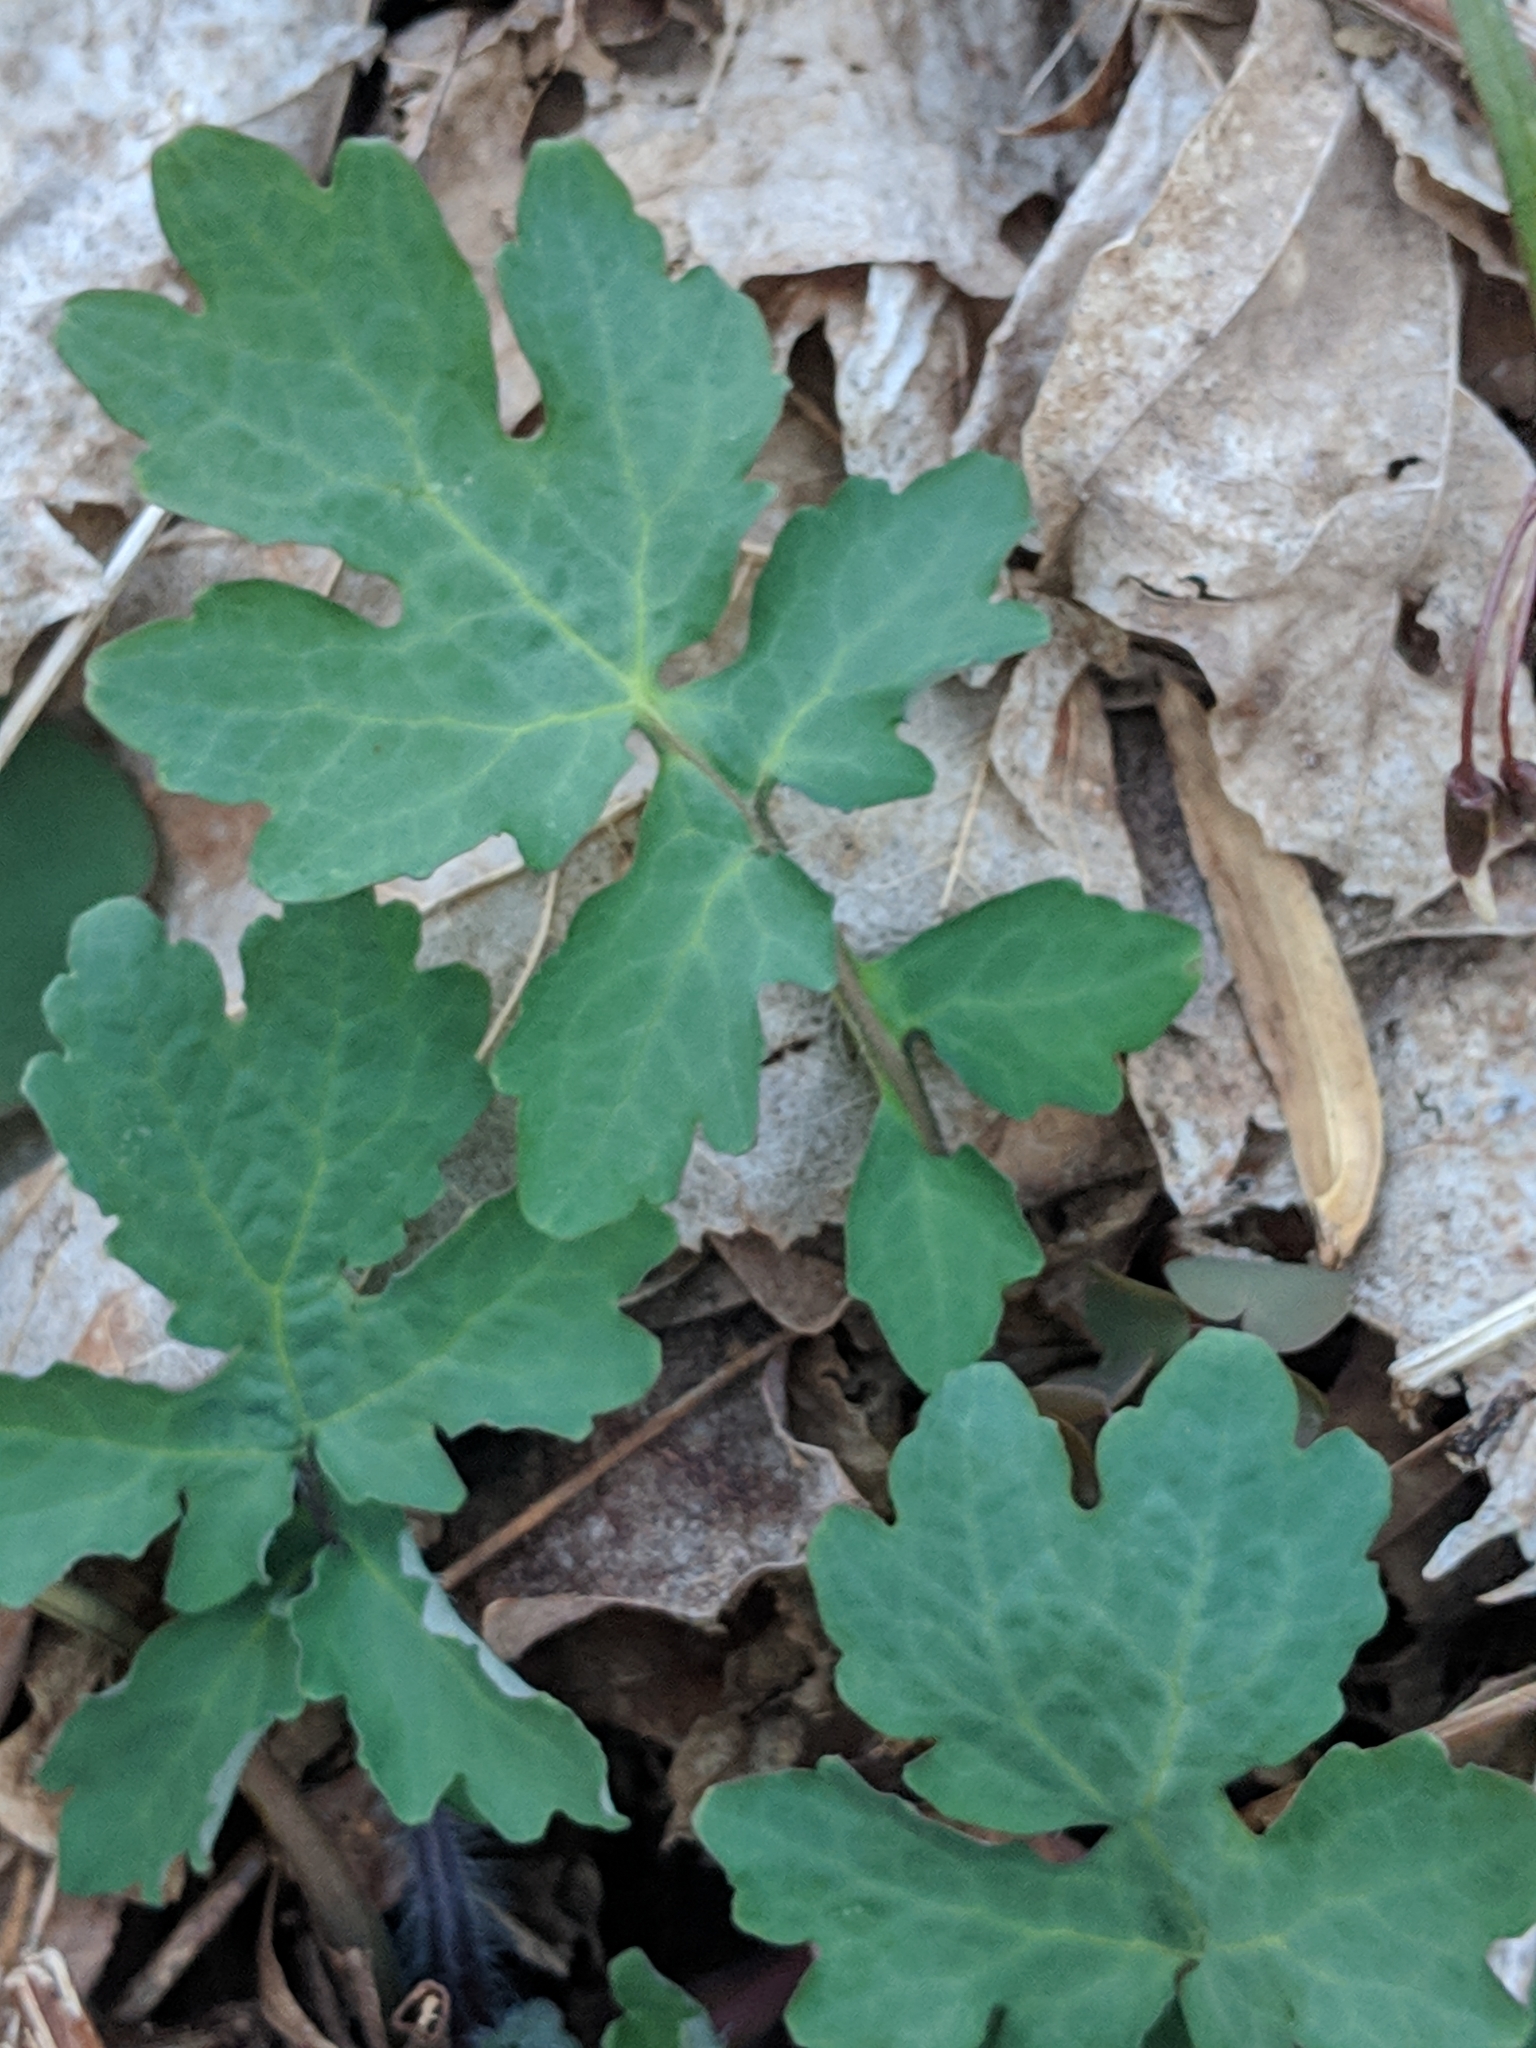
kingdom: Plantae
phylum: Tracheophyta
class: Magnoliopsida
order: Ranunculales
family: Papaveraceae
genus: Stylophorum
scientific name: Stylophorum diphyllum
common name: Celandine poppy
